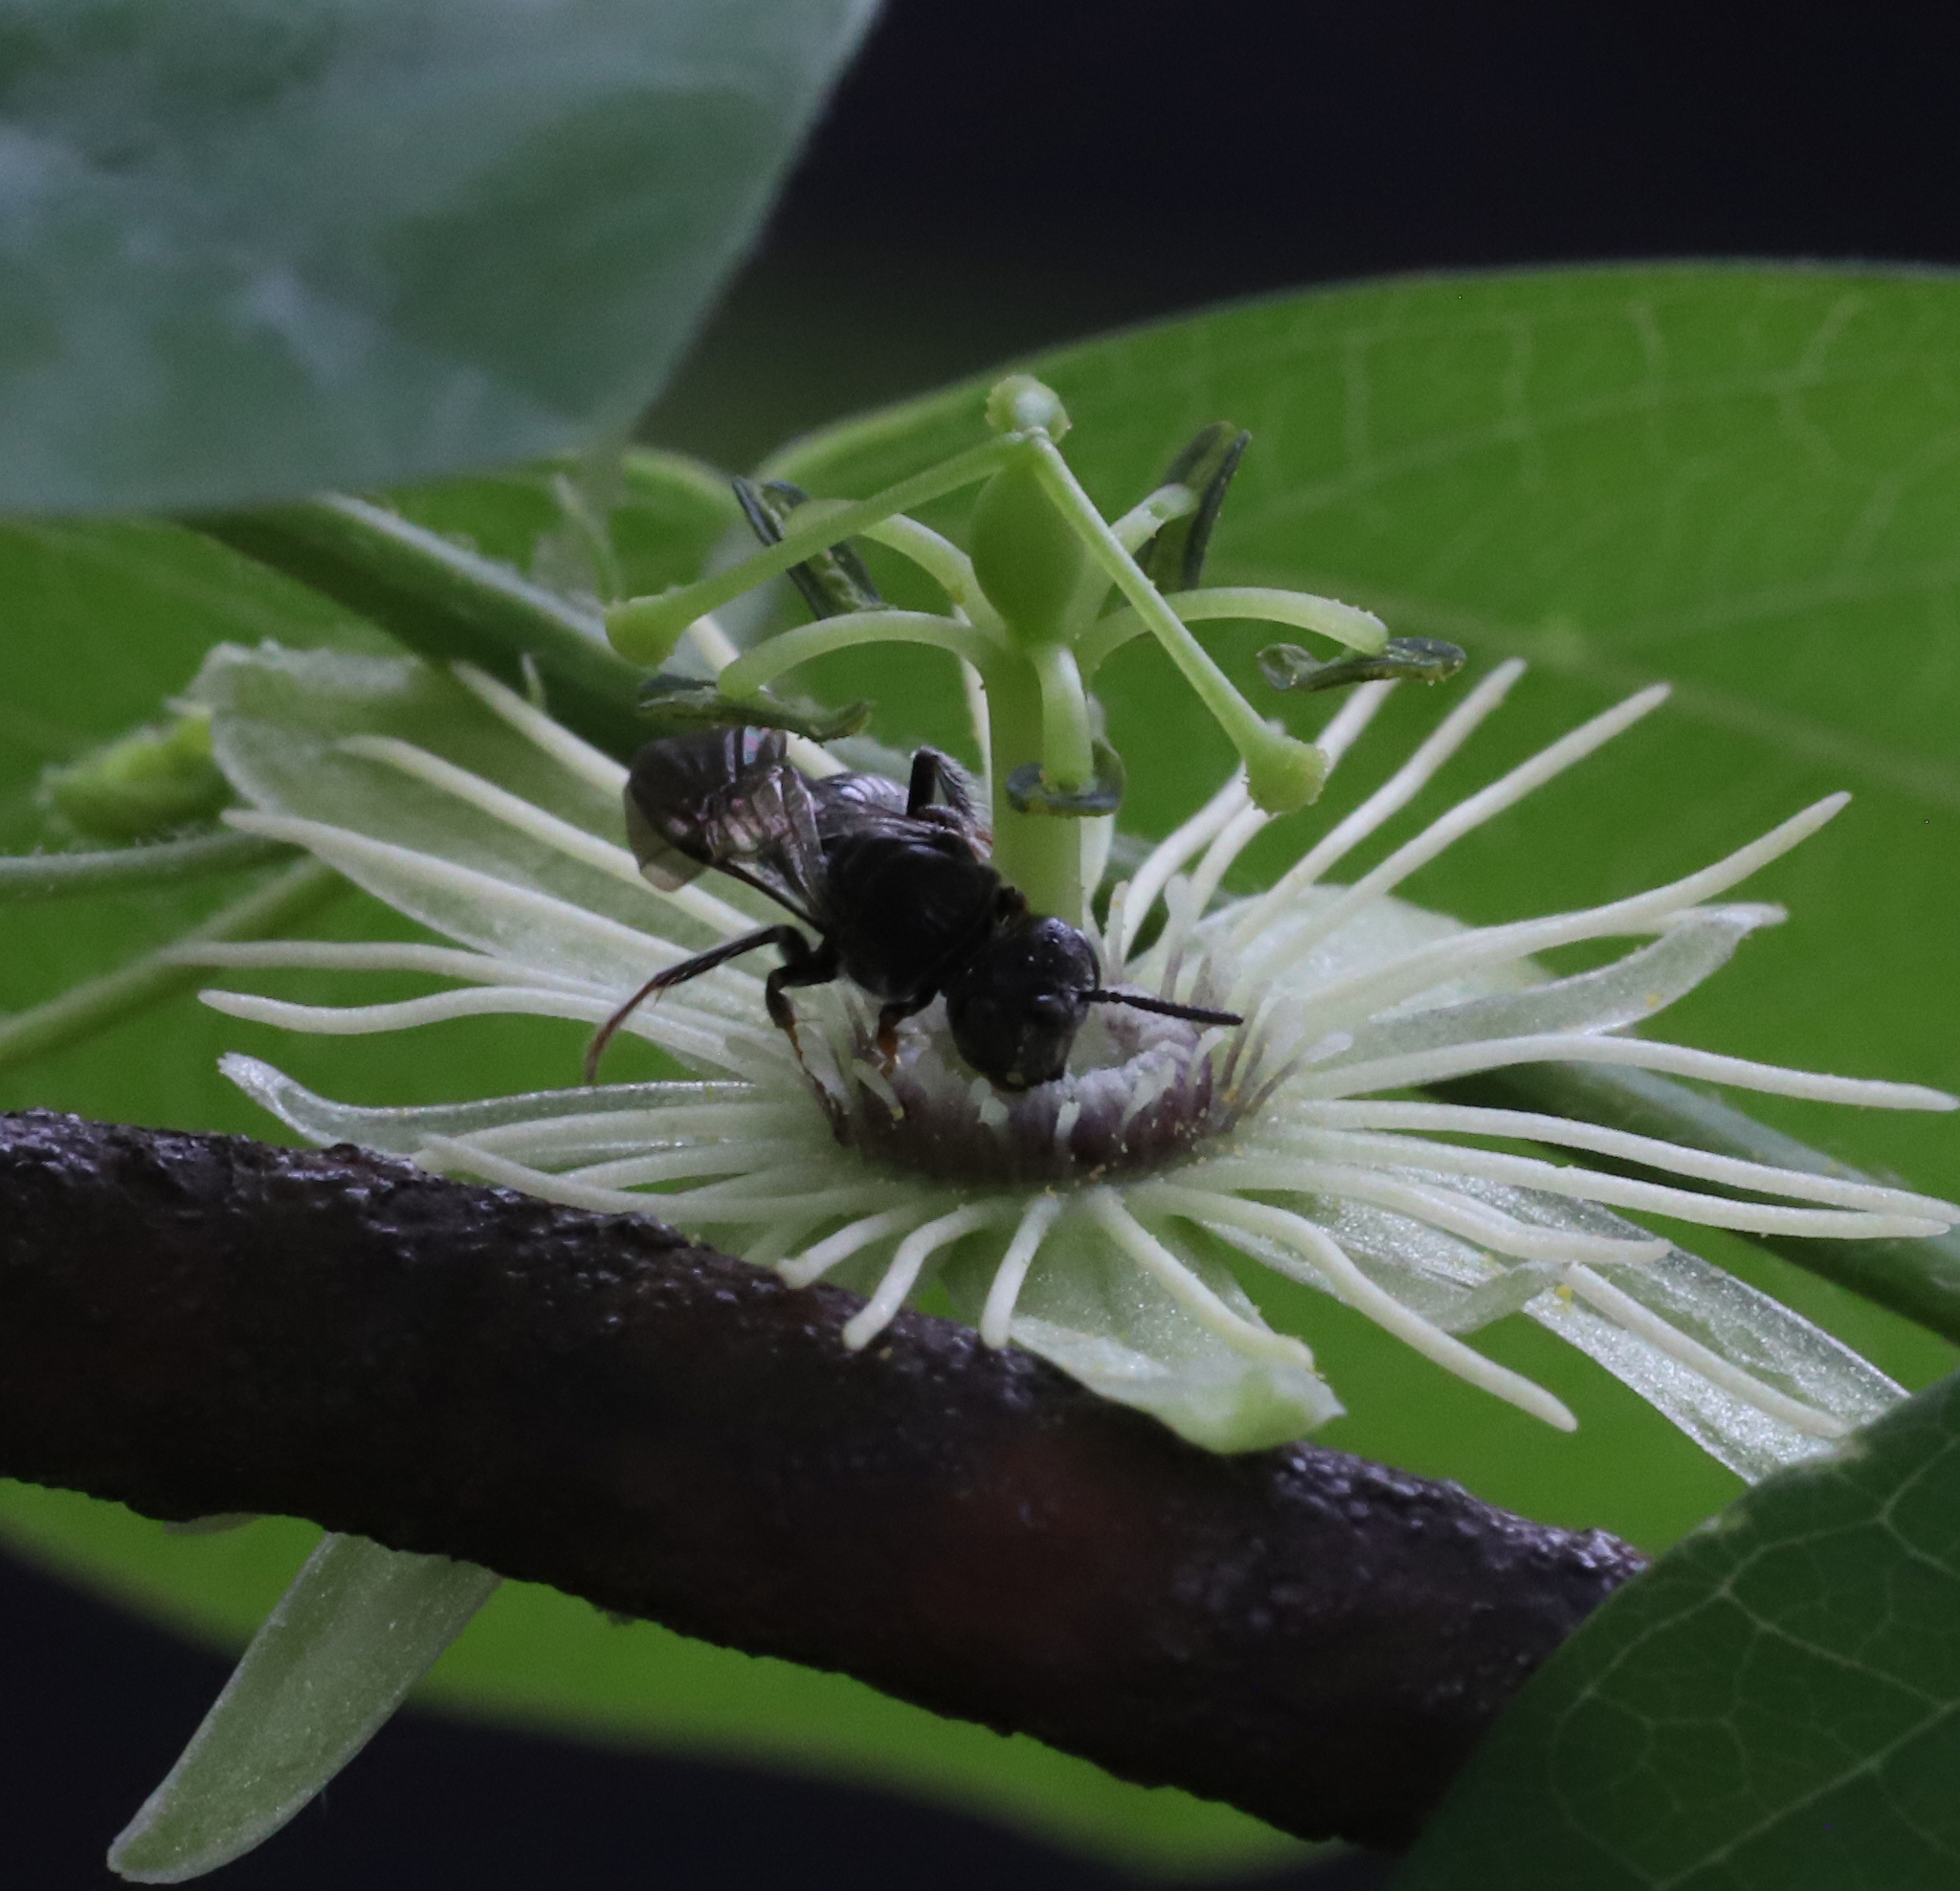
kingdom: Animalia
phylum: Arthropoda
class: Insecta
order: Hymenoptera
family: Andrenidae
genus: Protandrena
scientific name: Protandrena
